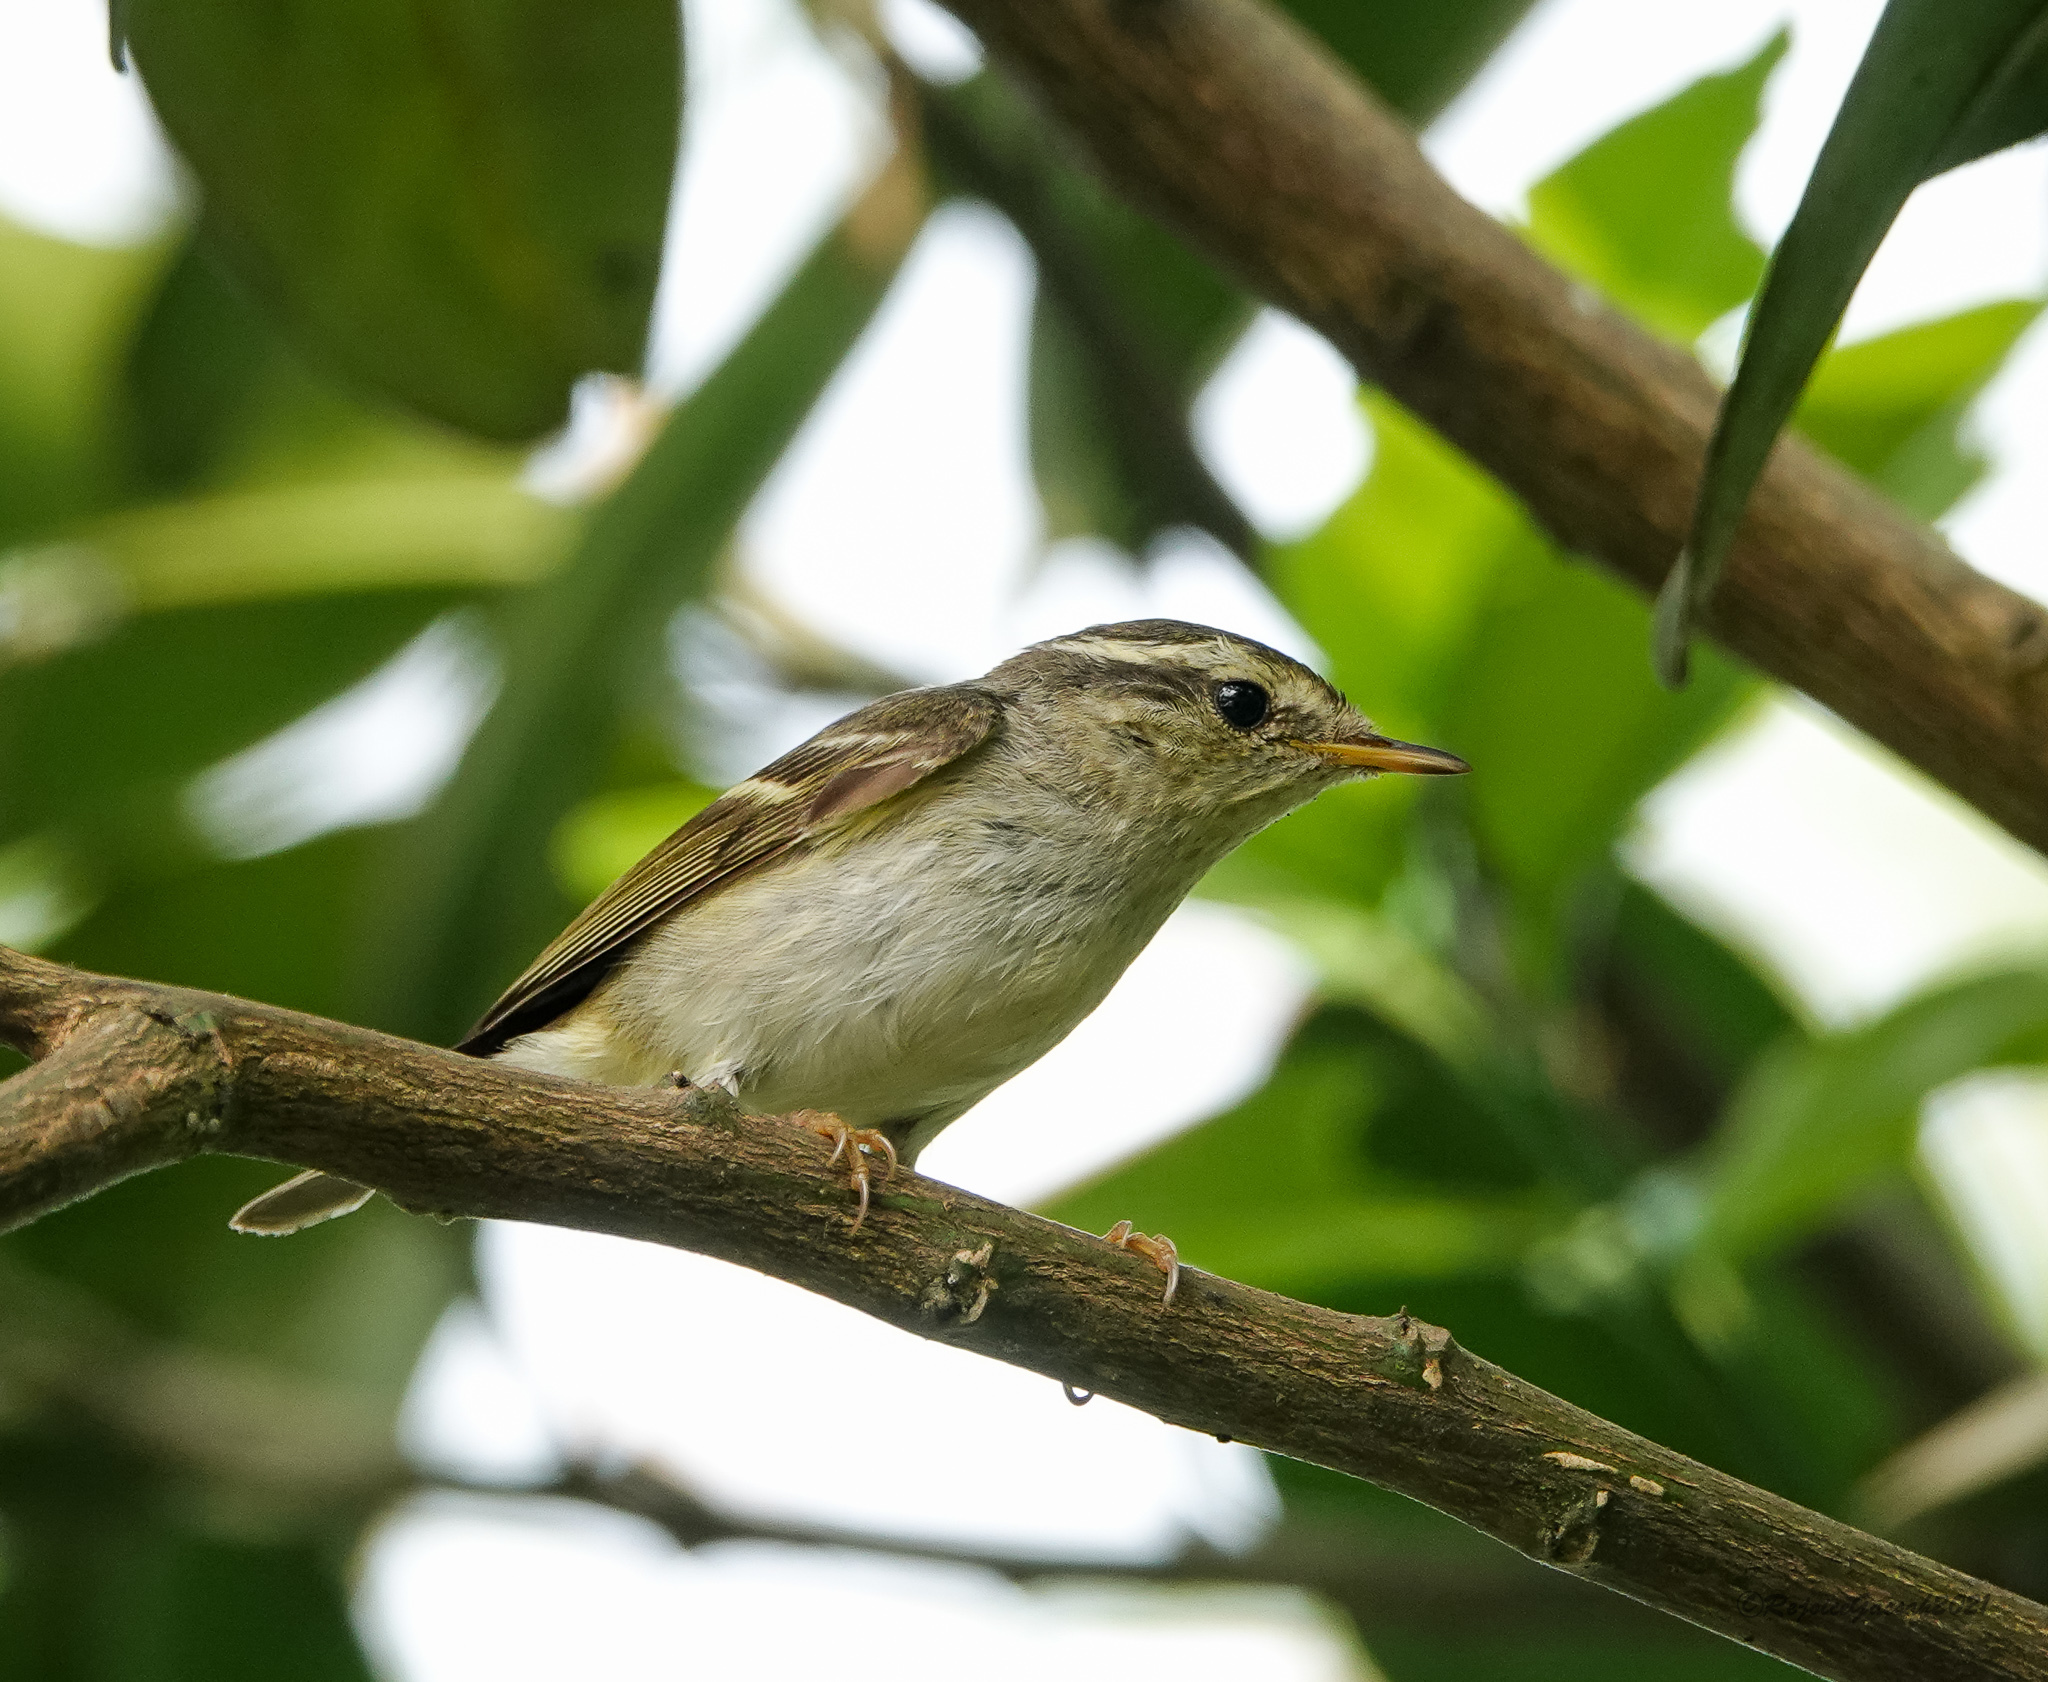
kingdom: Animalia
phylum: Chordata
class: Aves
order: Passeriformes
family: Phylloscopidae
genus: Phylloscopus
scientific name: Phylloscopus inornatus
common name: Yellow-browed warbler
